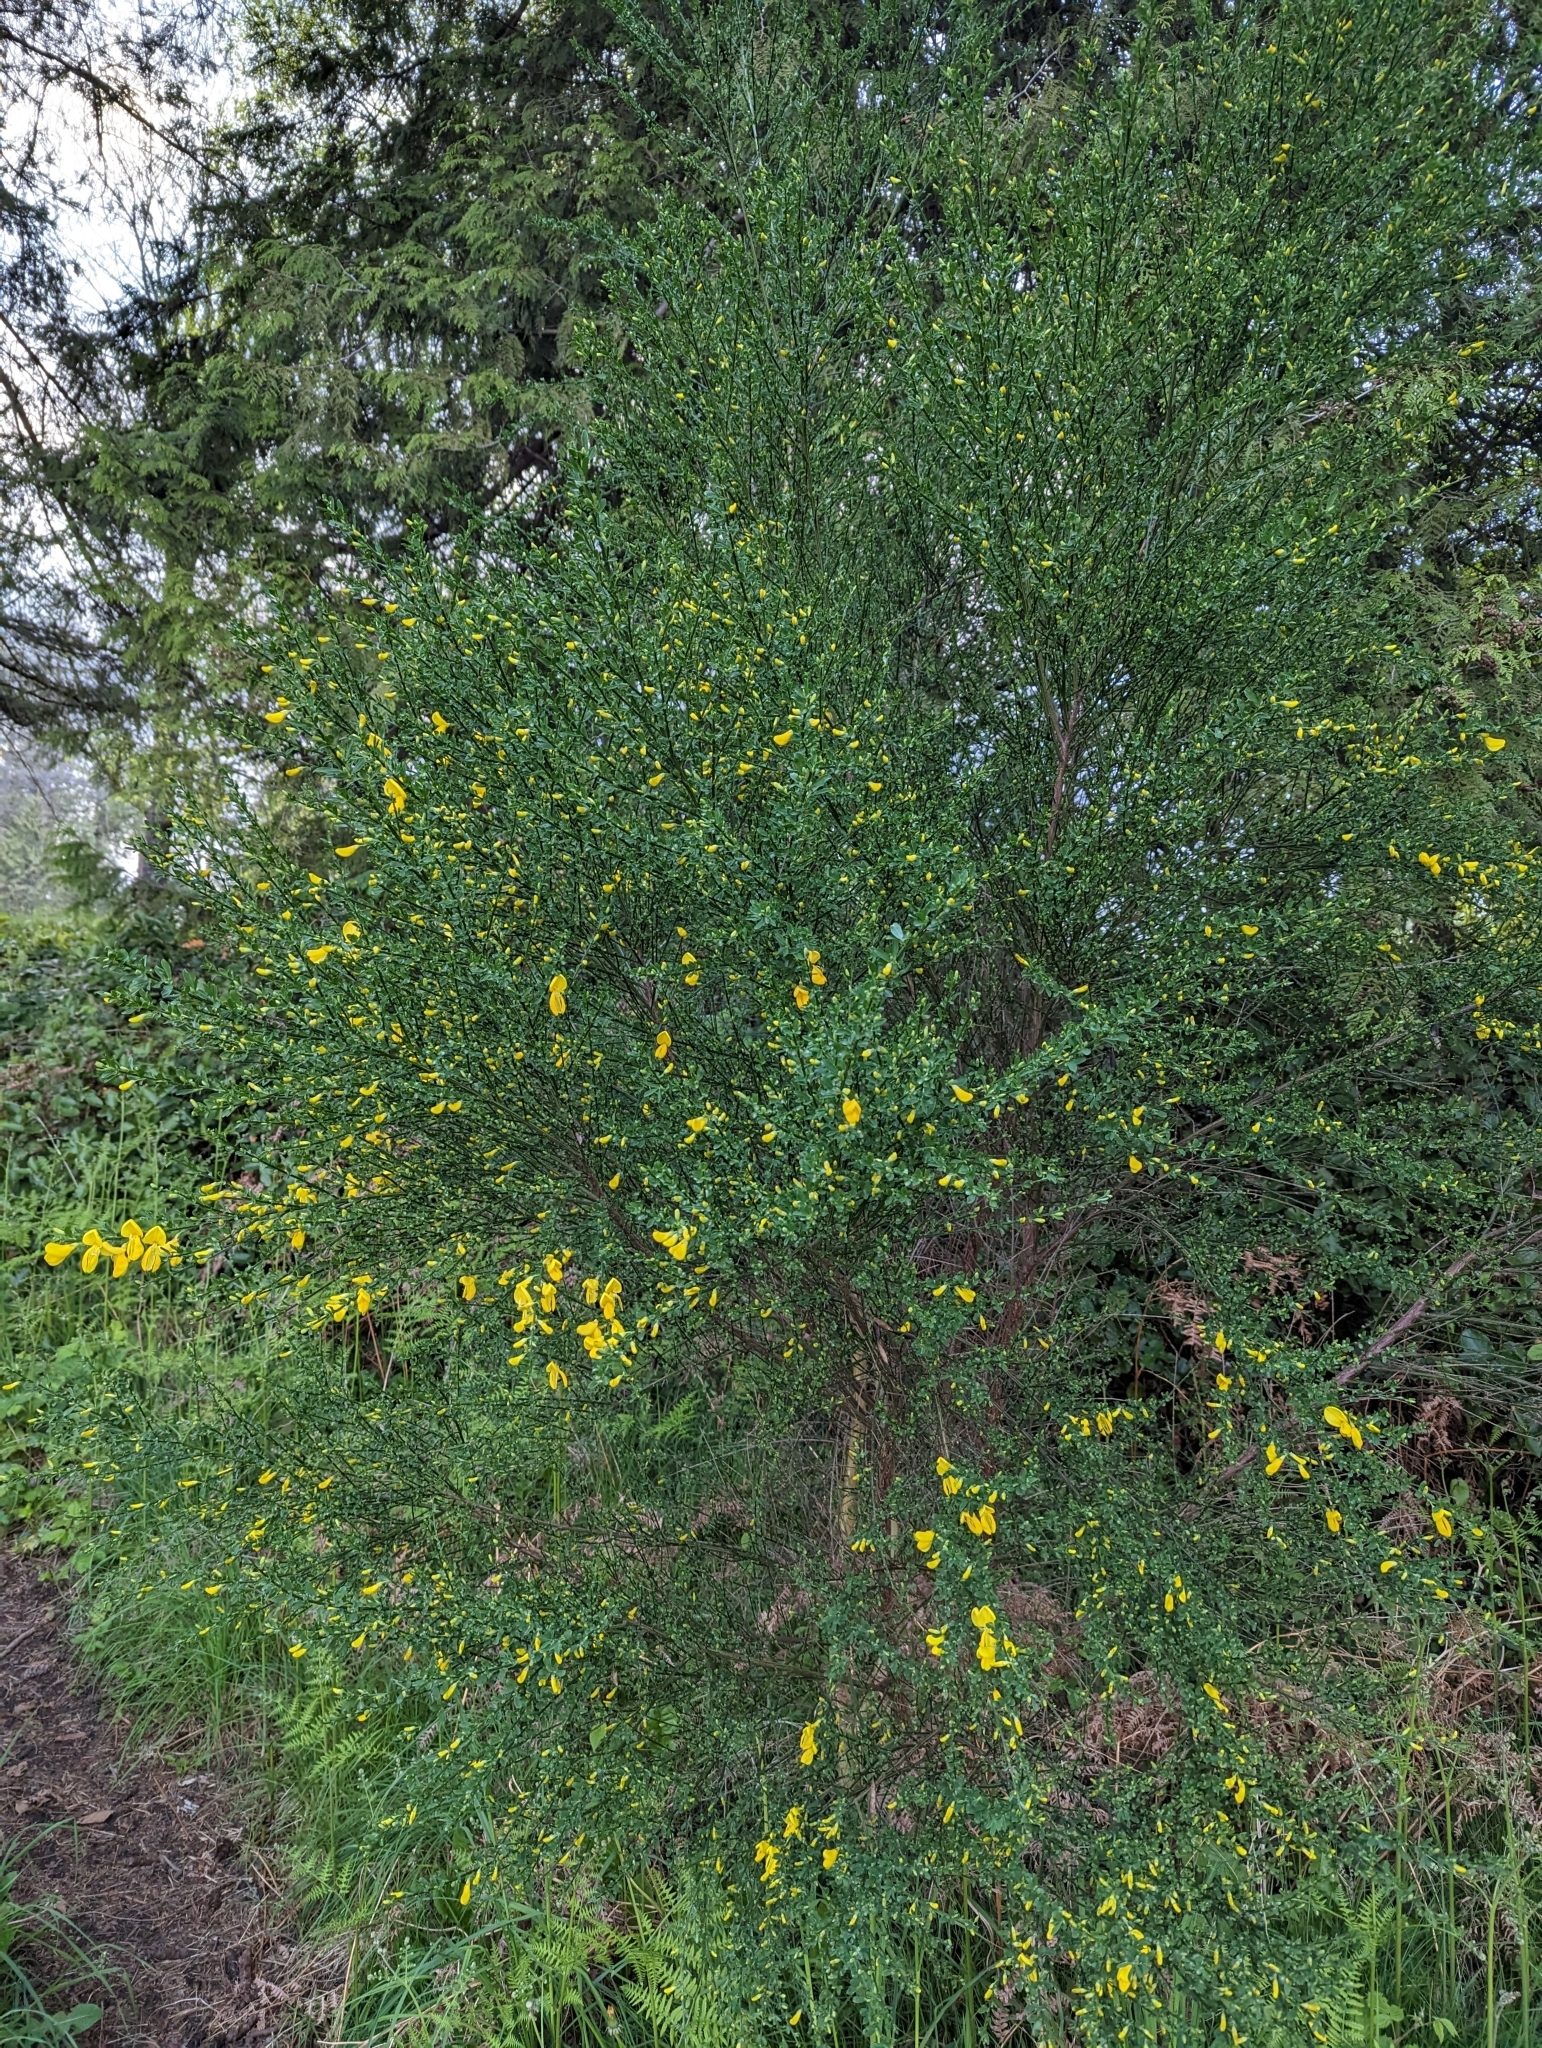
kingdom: Plantae
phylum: Tracheophyta
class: Magnoliopsida
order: Fabales
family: Fabaceae
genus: Cytisus
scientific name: Cytisus scoparius
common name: Scotch broom
